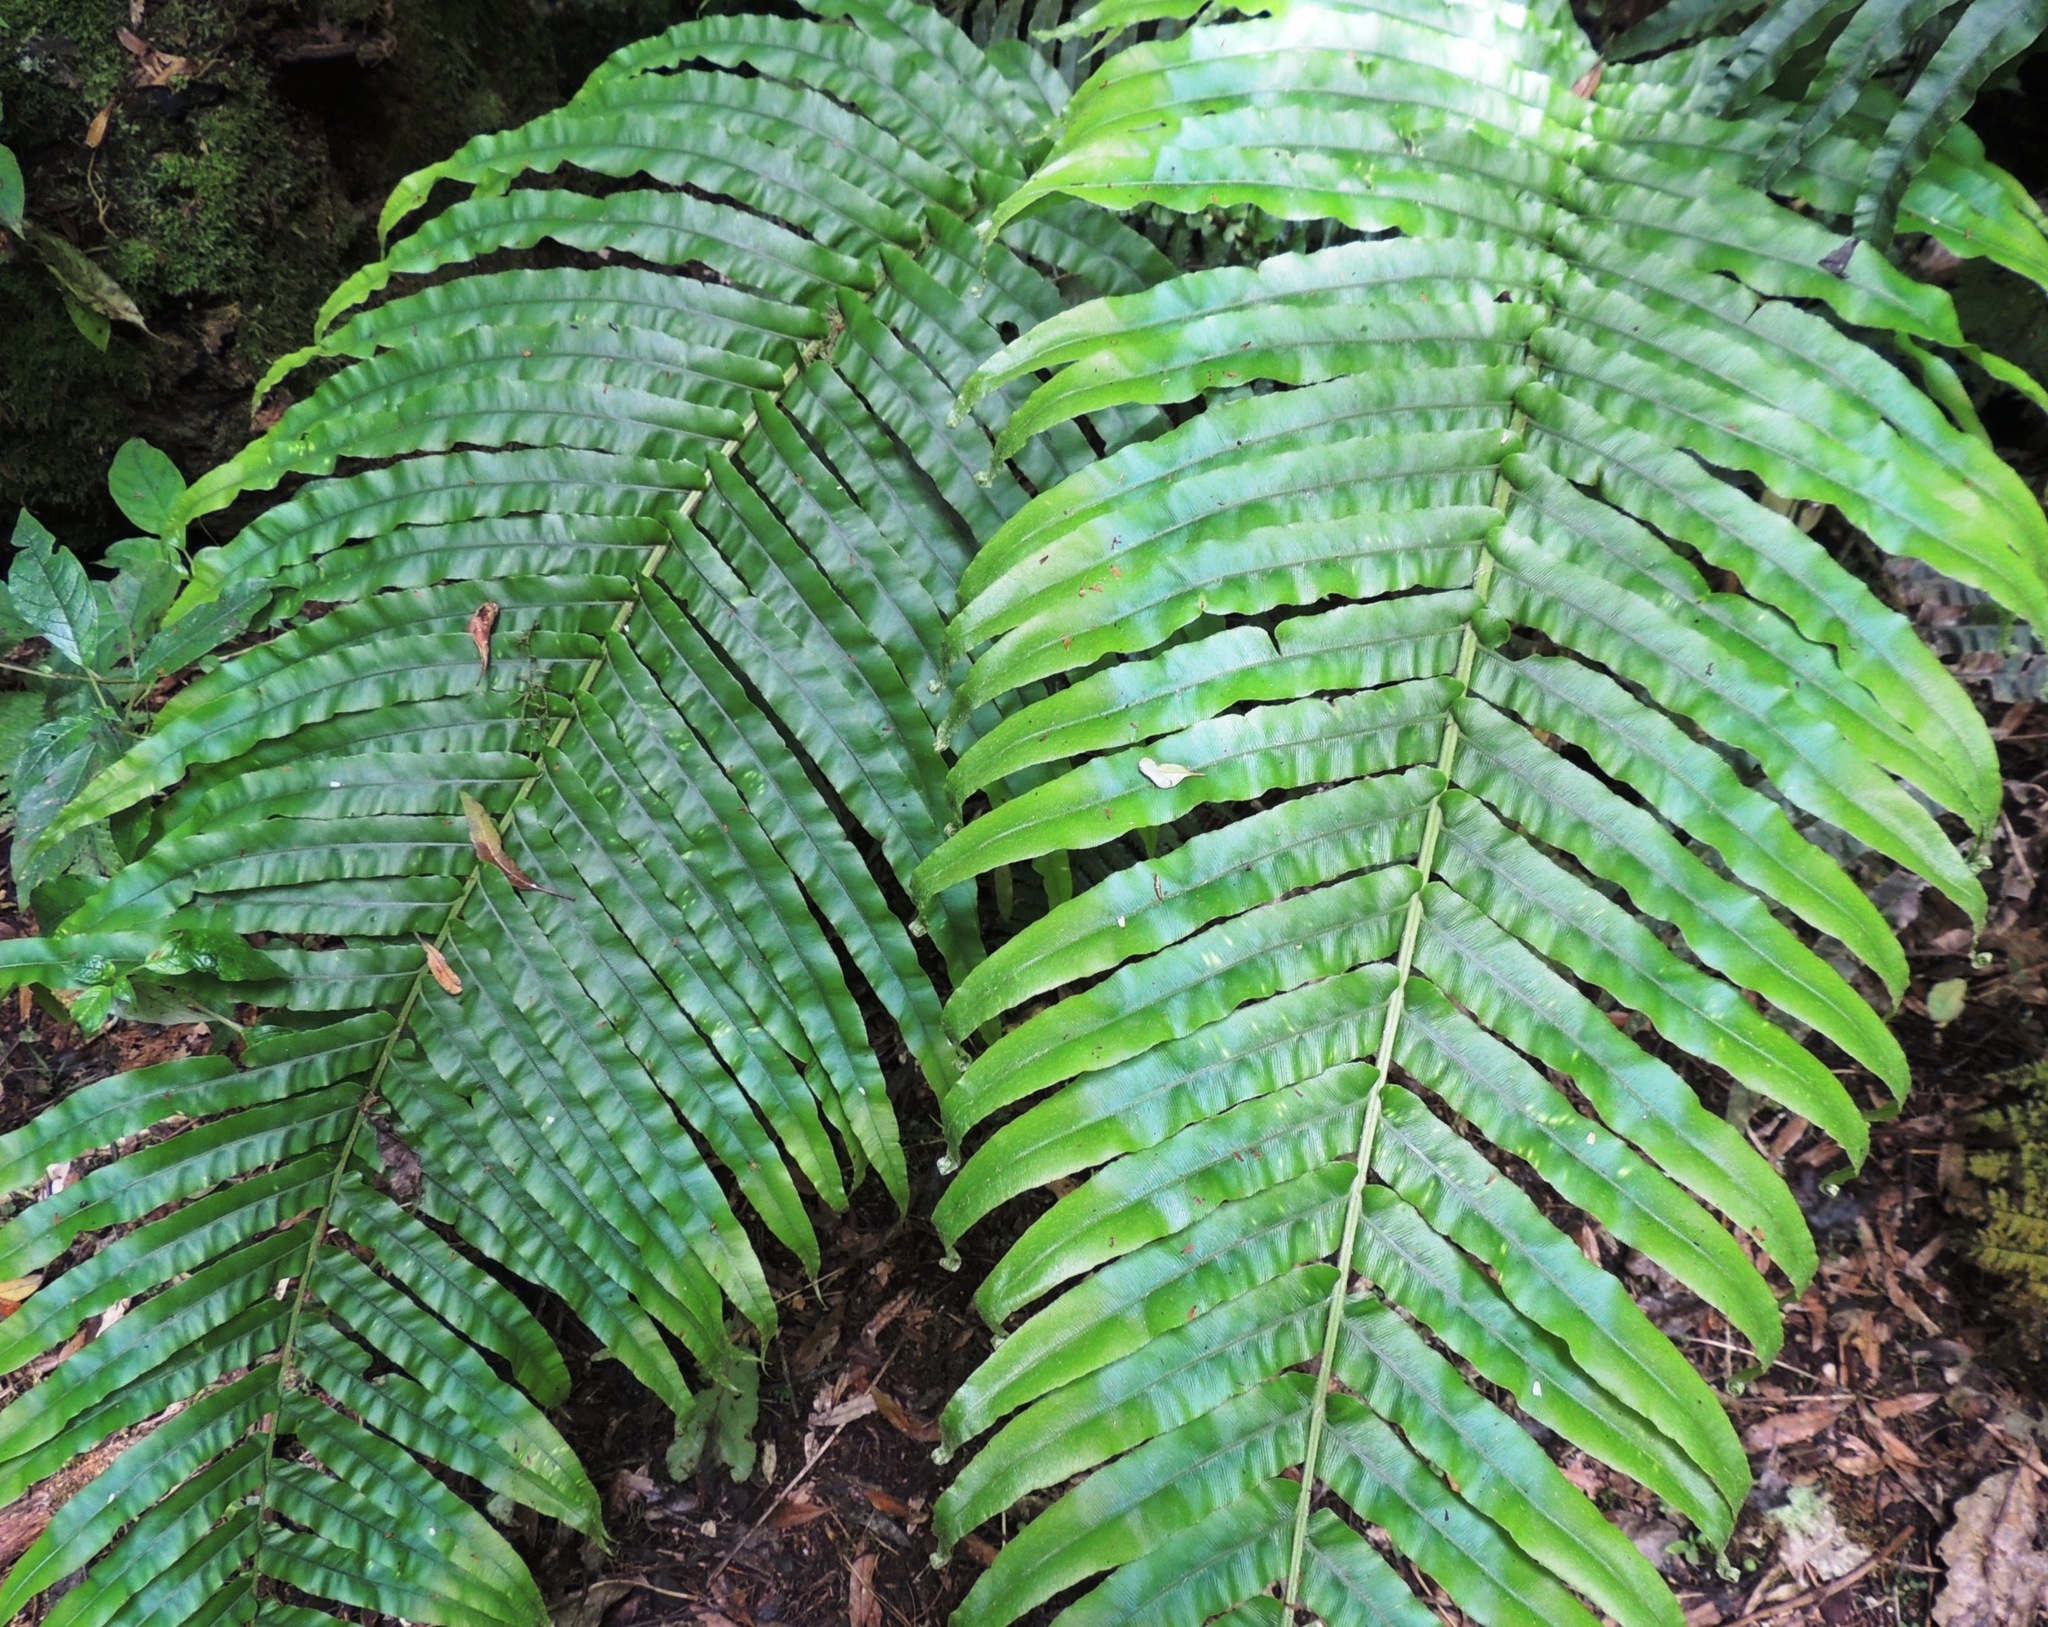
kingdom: Plantae
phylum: Tracheophyta
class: Polypodiopsida
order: Polypodiales
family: Blechnaceae
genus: Parablechnum
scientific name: Parablechnum novae-zelandiae
